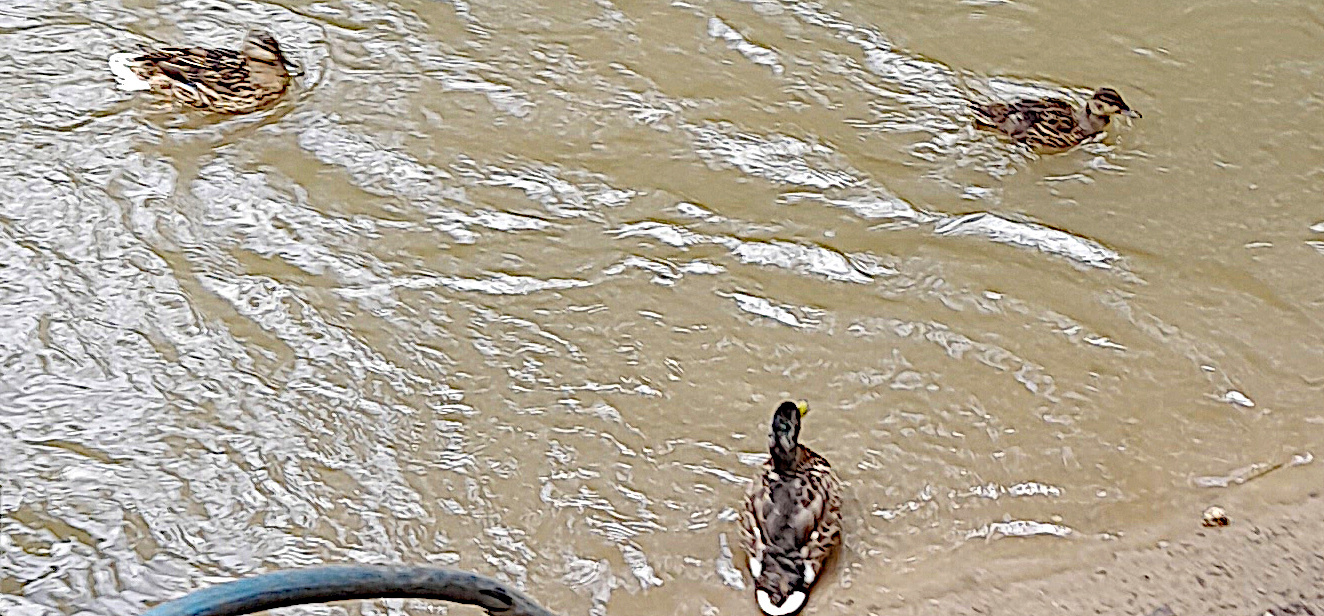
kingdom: Animalia
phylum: Chordata
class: Aves
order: Anseriformes
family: Anatidae
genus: Anas
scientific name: Anas platyrhynchos
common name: Mallard
